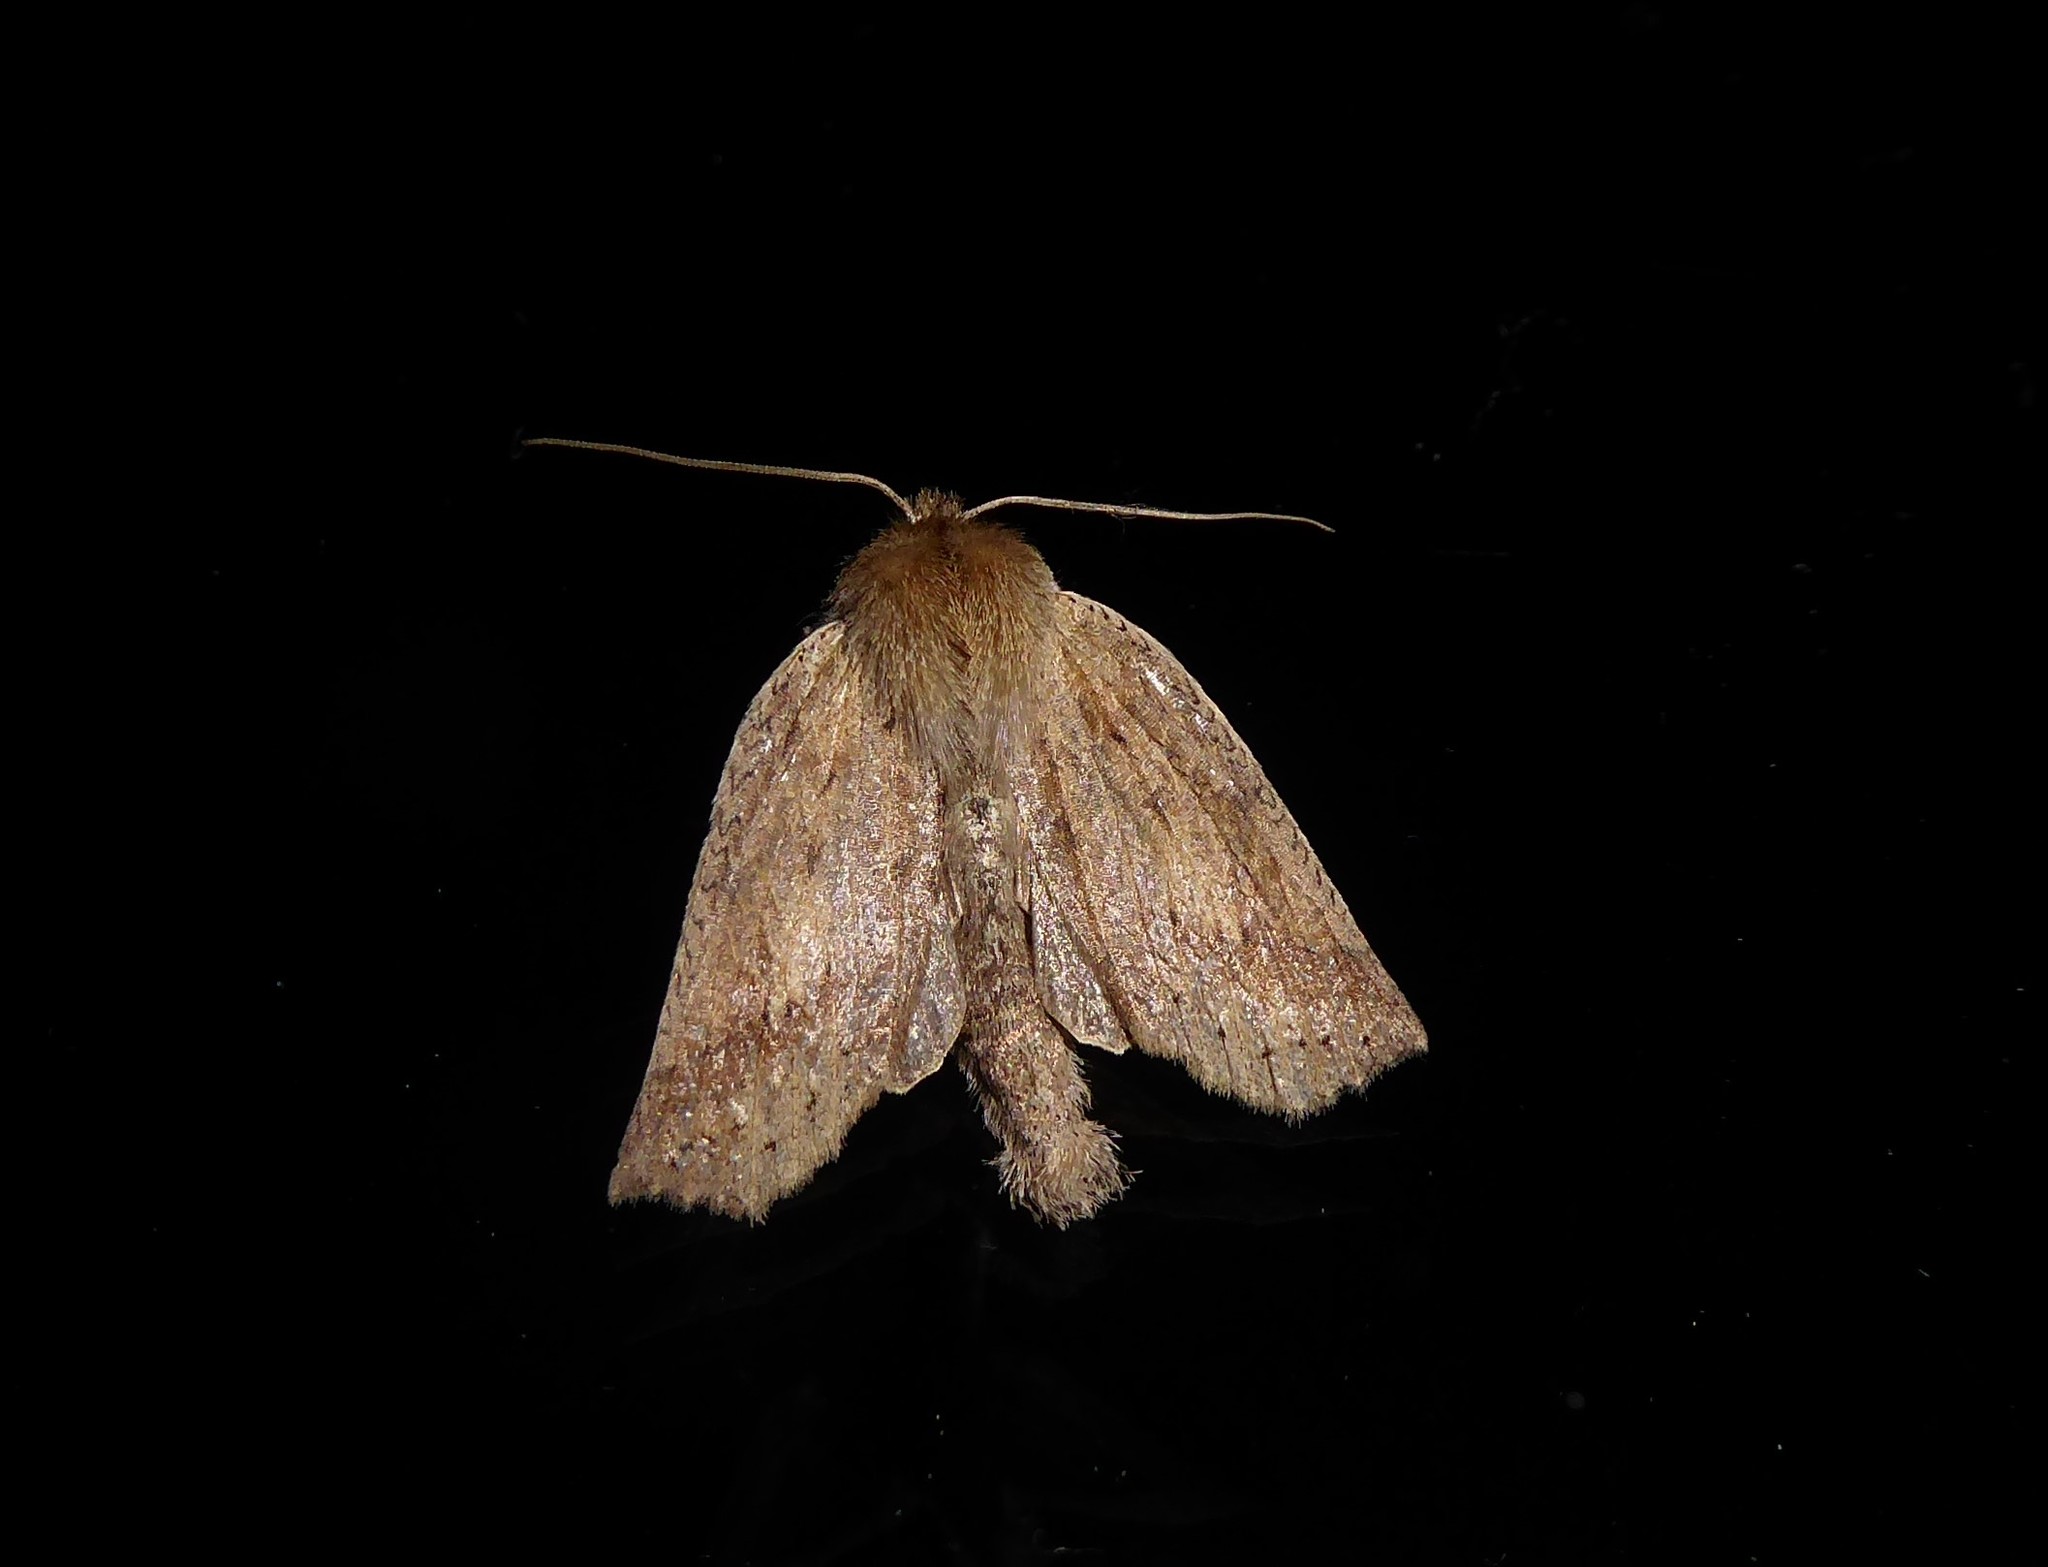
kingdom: Animalia
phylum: Arthropoda
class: Insecta
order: Lepidoptera
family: Geometridae
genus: Declana
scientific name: Declana leptomera
